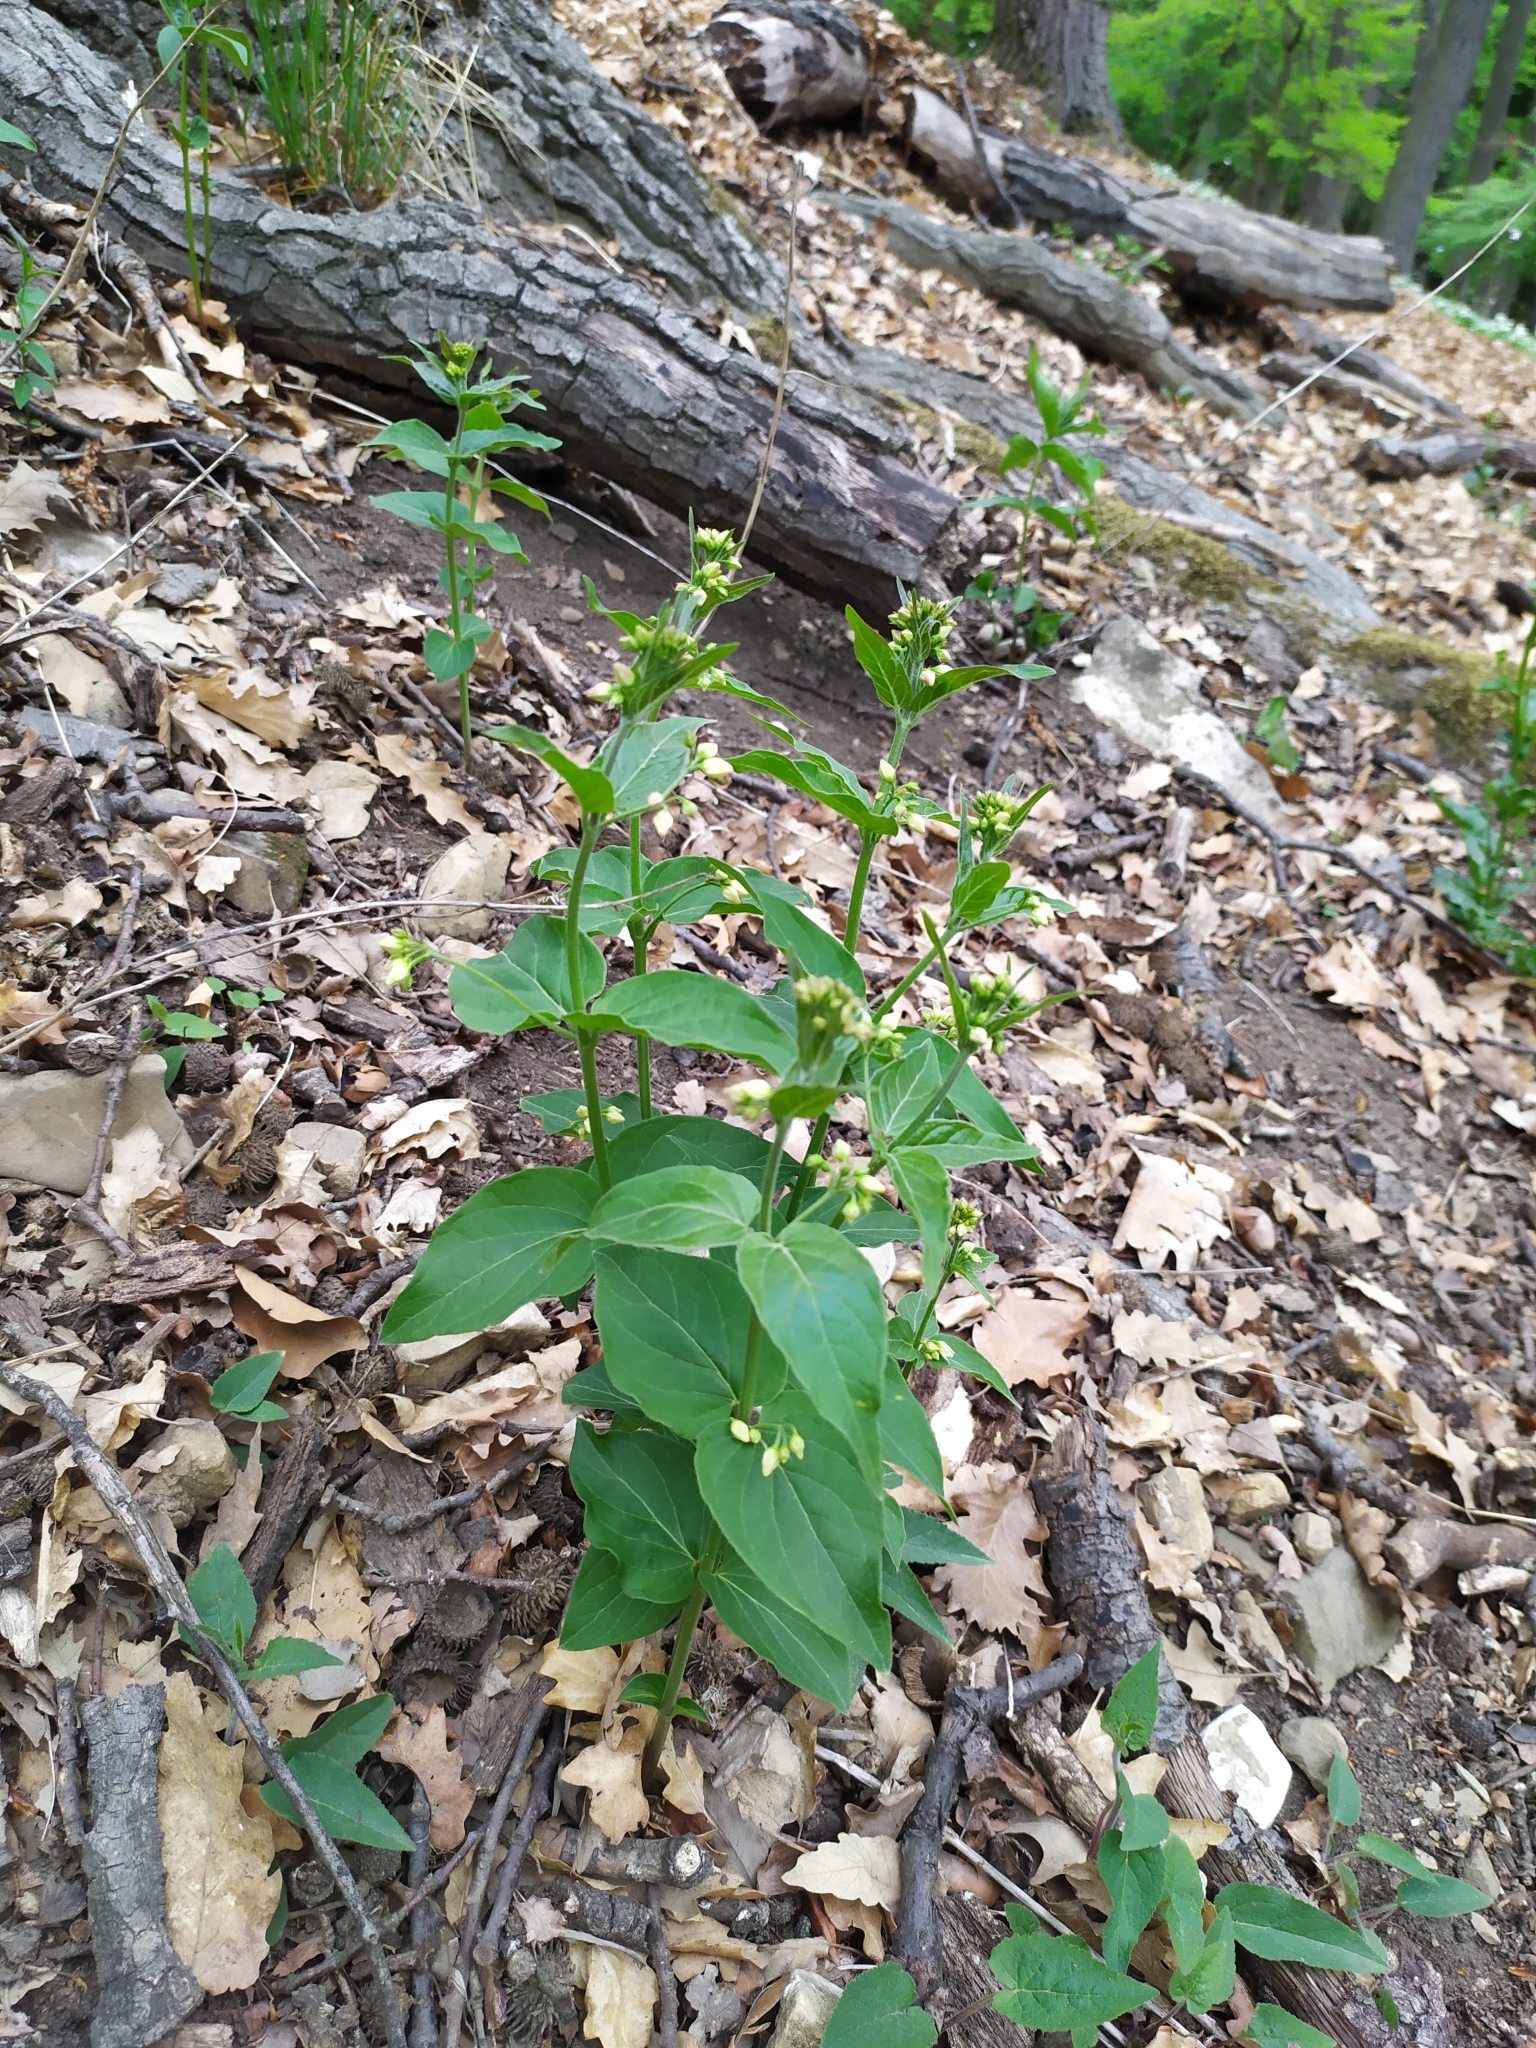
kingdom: Plantae
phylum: Tracheophyta
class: Magnoliopsida
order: Gentianales
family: Apocynaceae
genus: Vincetoxicum
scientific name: Vincetoxicum hirundinaria
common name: White swallowwort
